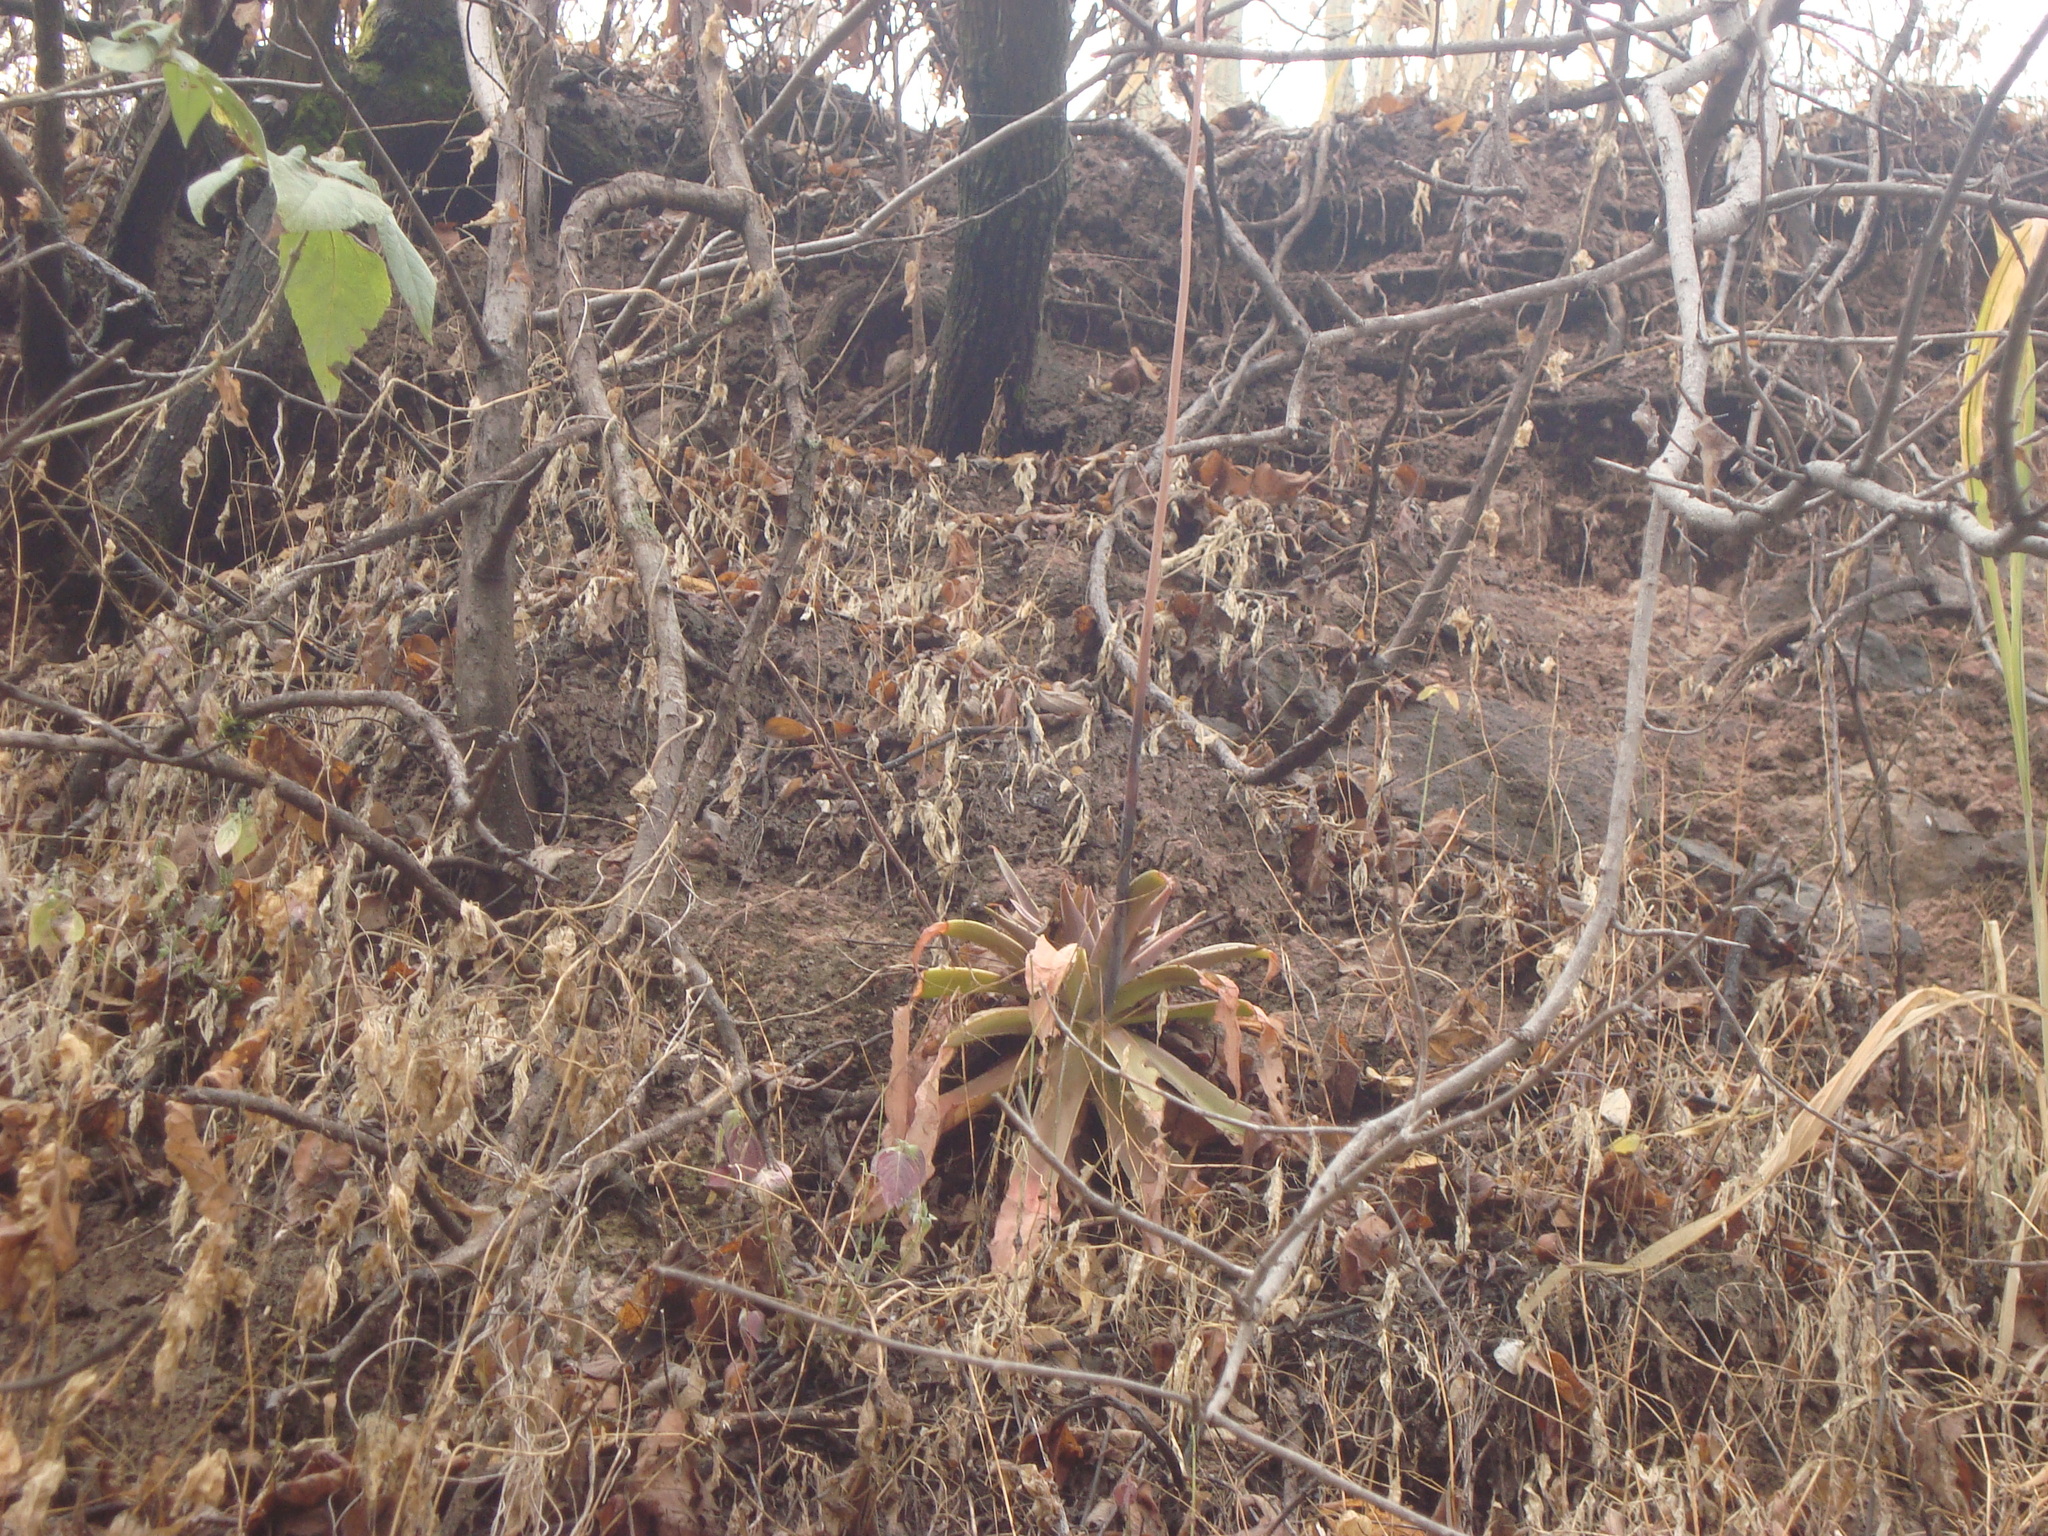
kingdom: Plantae
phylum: Tracheophyta
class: Magnoliopsida
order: Saxifragales
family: Crassulaceae
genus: Echeveria
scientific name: Echeveria novogaliciana
